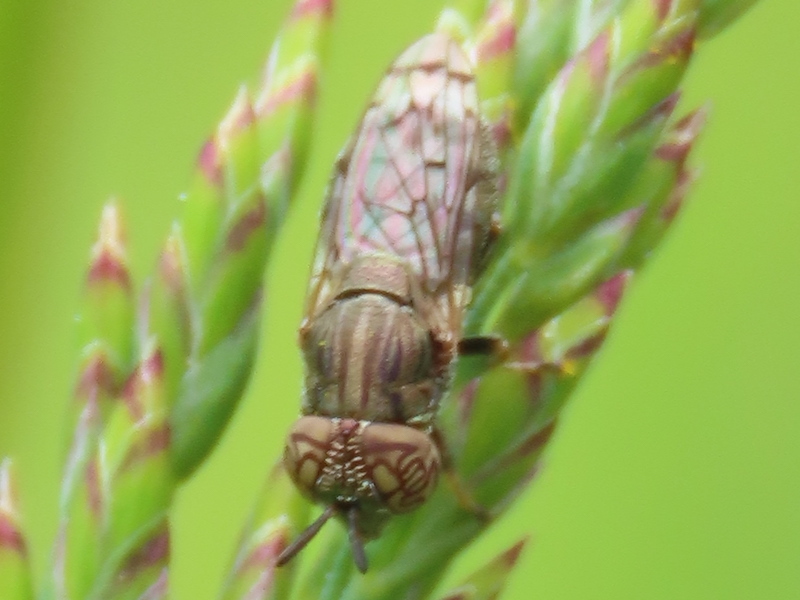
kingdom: Animalia
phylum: Arthropoda
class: Insecta
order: Diptera
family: Syrphidae
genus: Orthonevra
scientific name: Orthonevra nitida
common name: Wavy mucksucker
